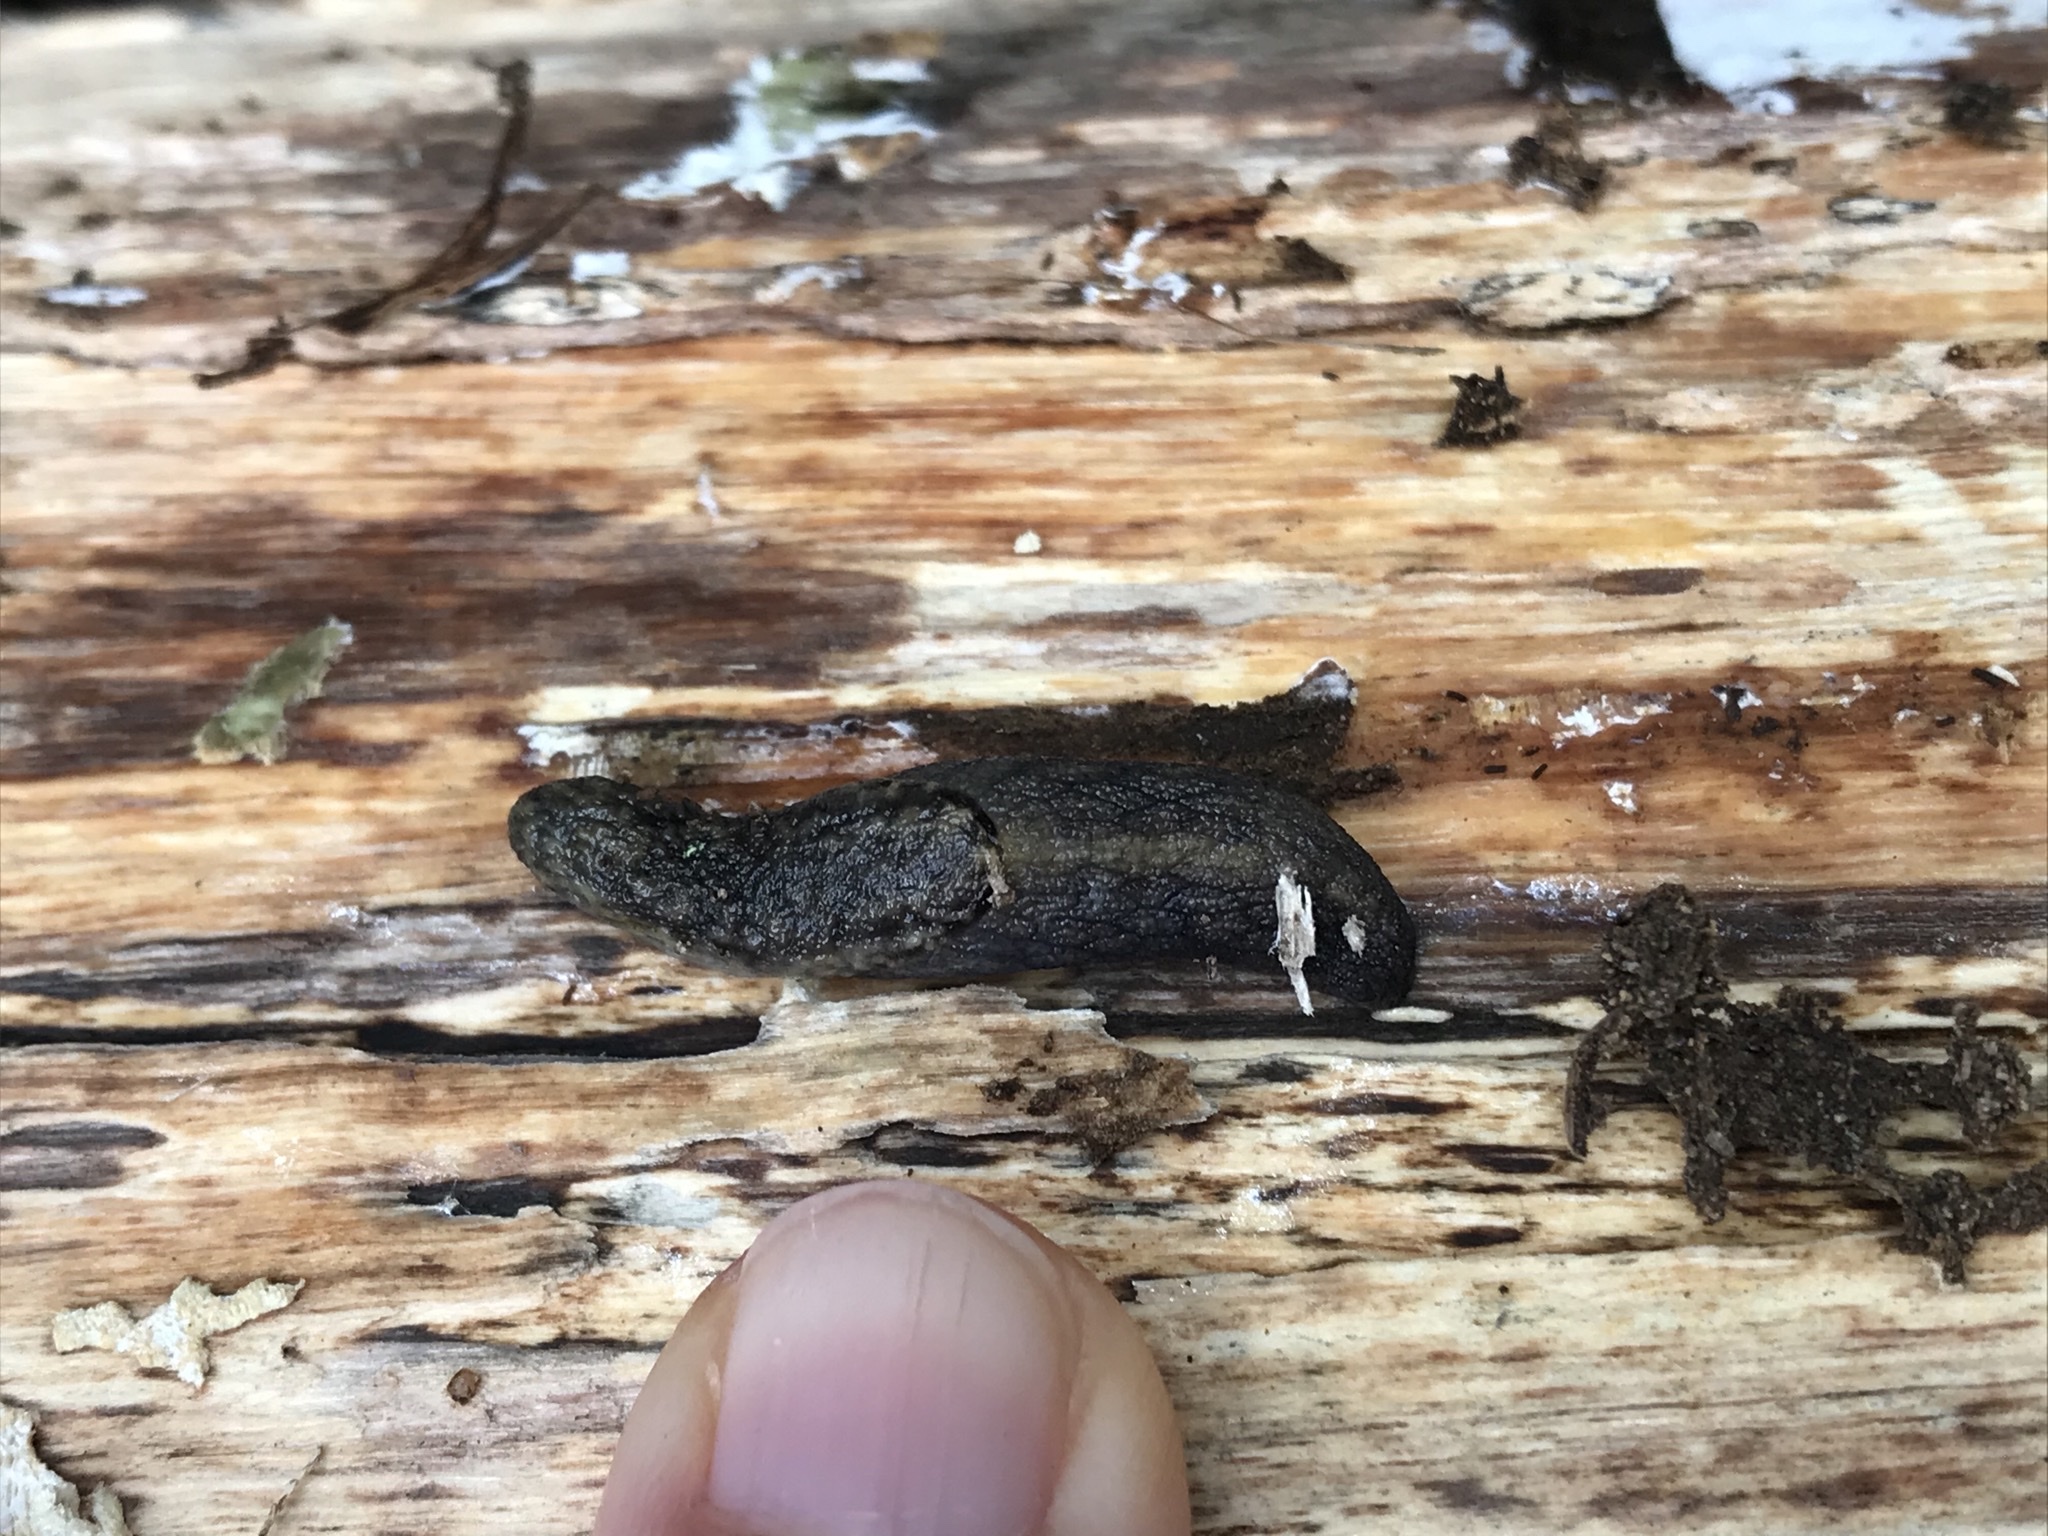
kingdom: Animalia
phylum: Mollusca
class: Gastropoda
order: Stylommatophora
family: Ariolimacidae
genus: Prophysaon
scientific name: Prophysaon andersonii
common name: Reticulate taildropper
